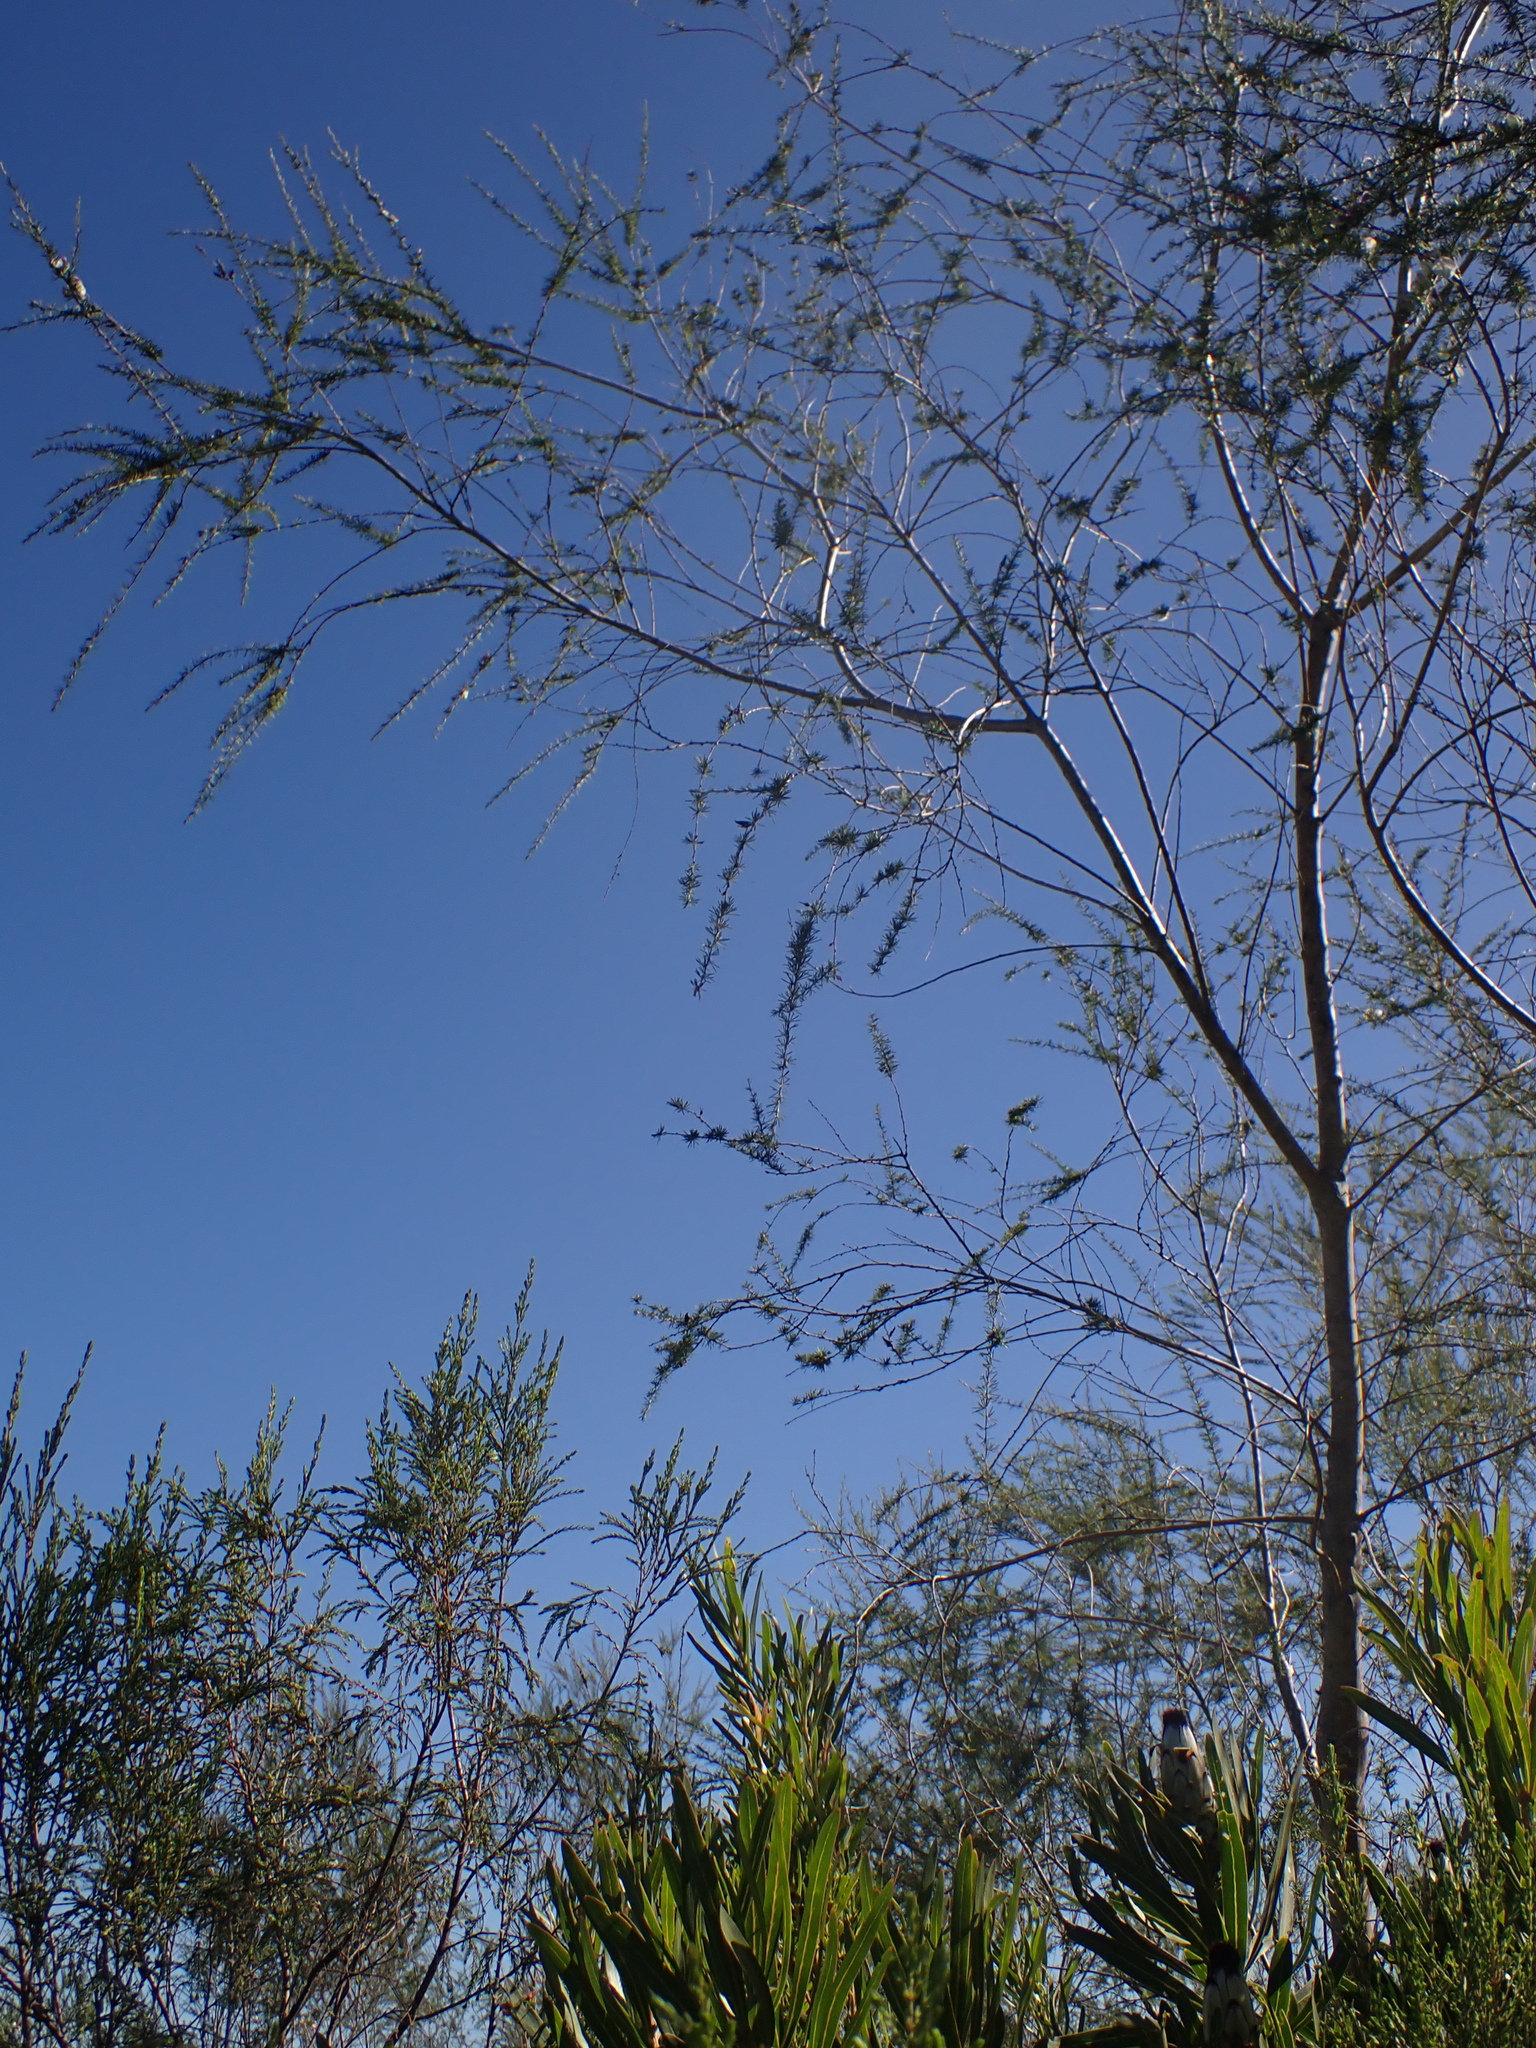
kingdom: Plantae
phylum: Tracheophyta
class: Magnoliopsida
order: Fabales
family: Fabaceae
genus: Aspalathus
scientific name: Aspalathus willdenowiana
